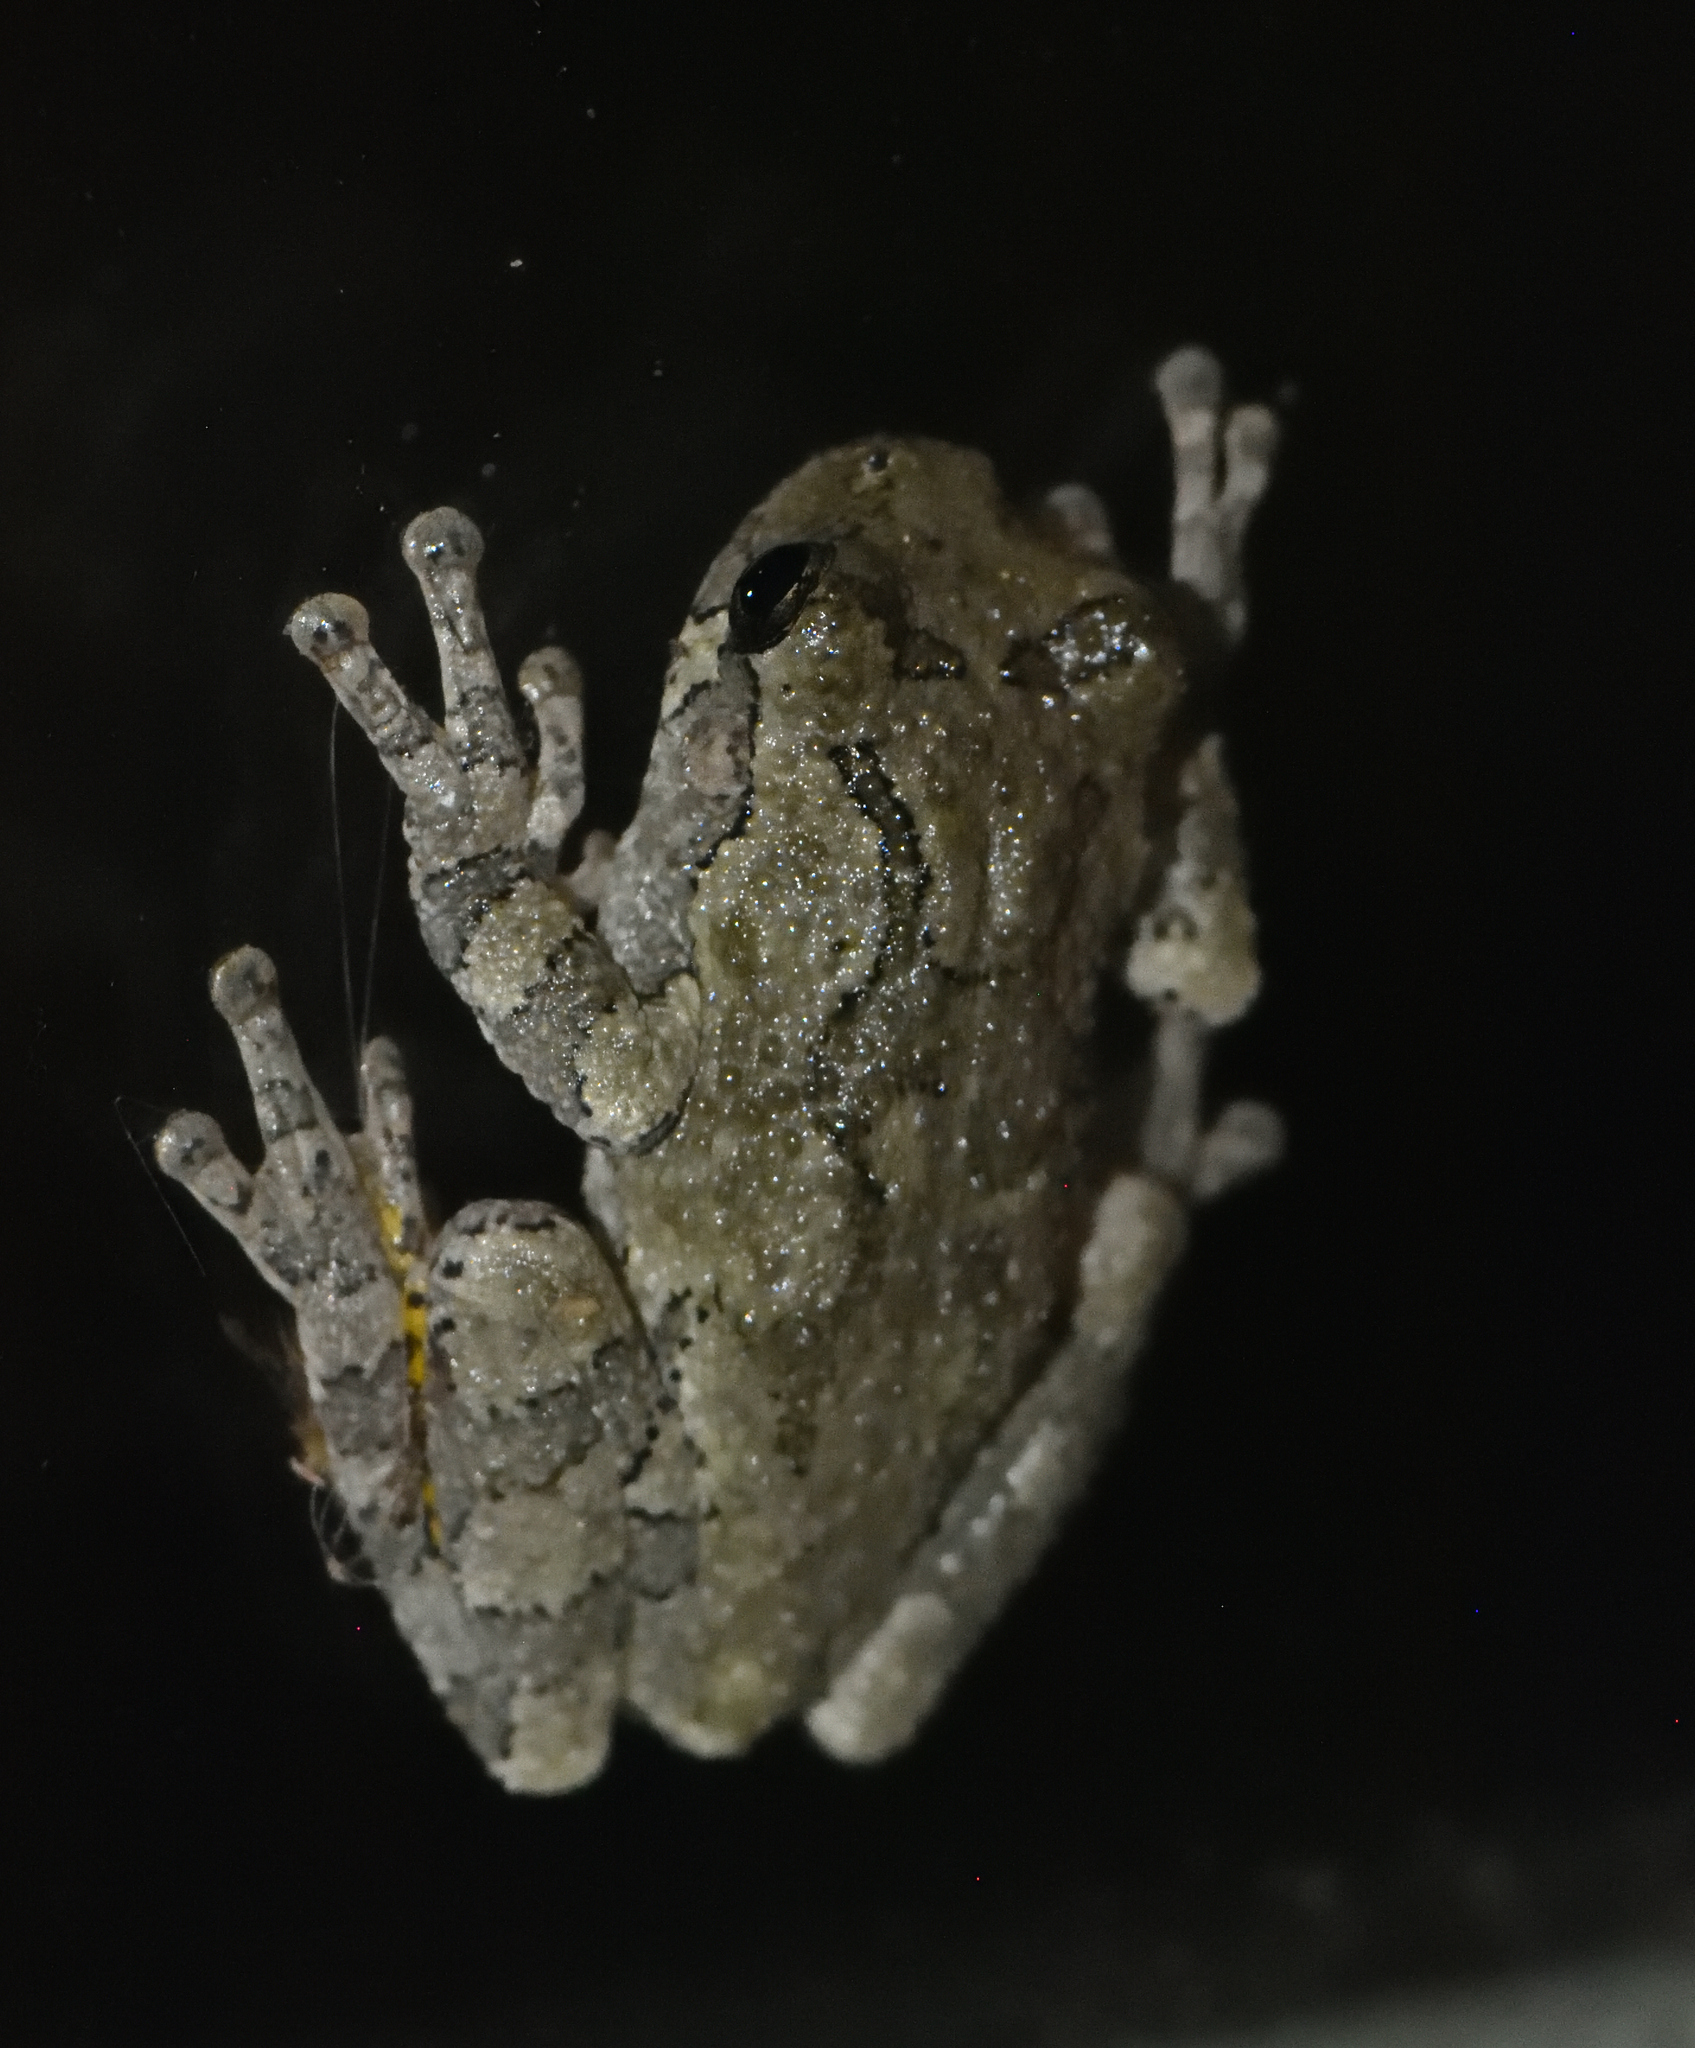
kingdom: Animalia
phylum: Chordata
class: Amphibia
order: Anura
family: Hylidae
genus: Dryophytes
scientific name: Dryophytes versicolor
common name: Gray treefrog
